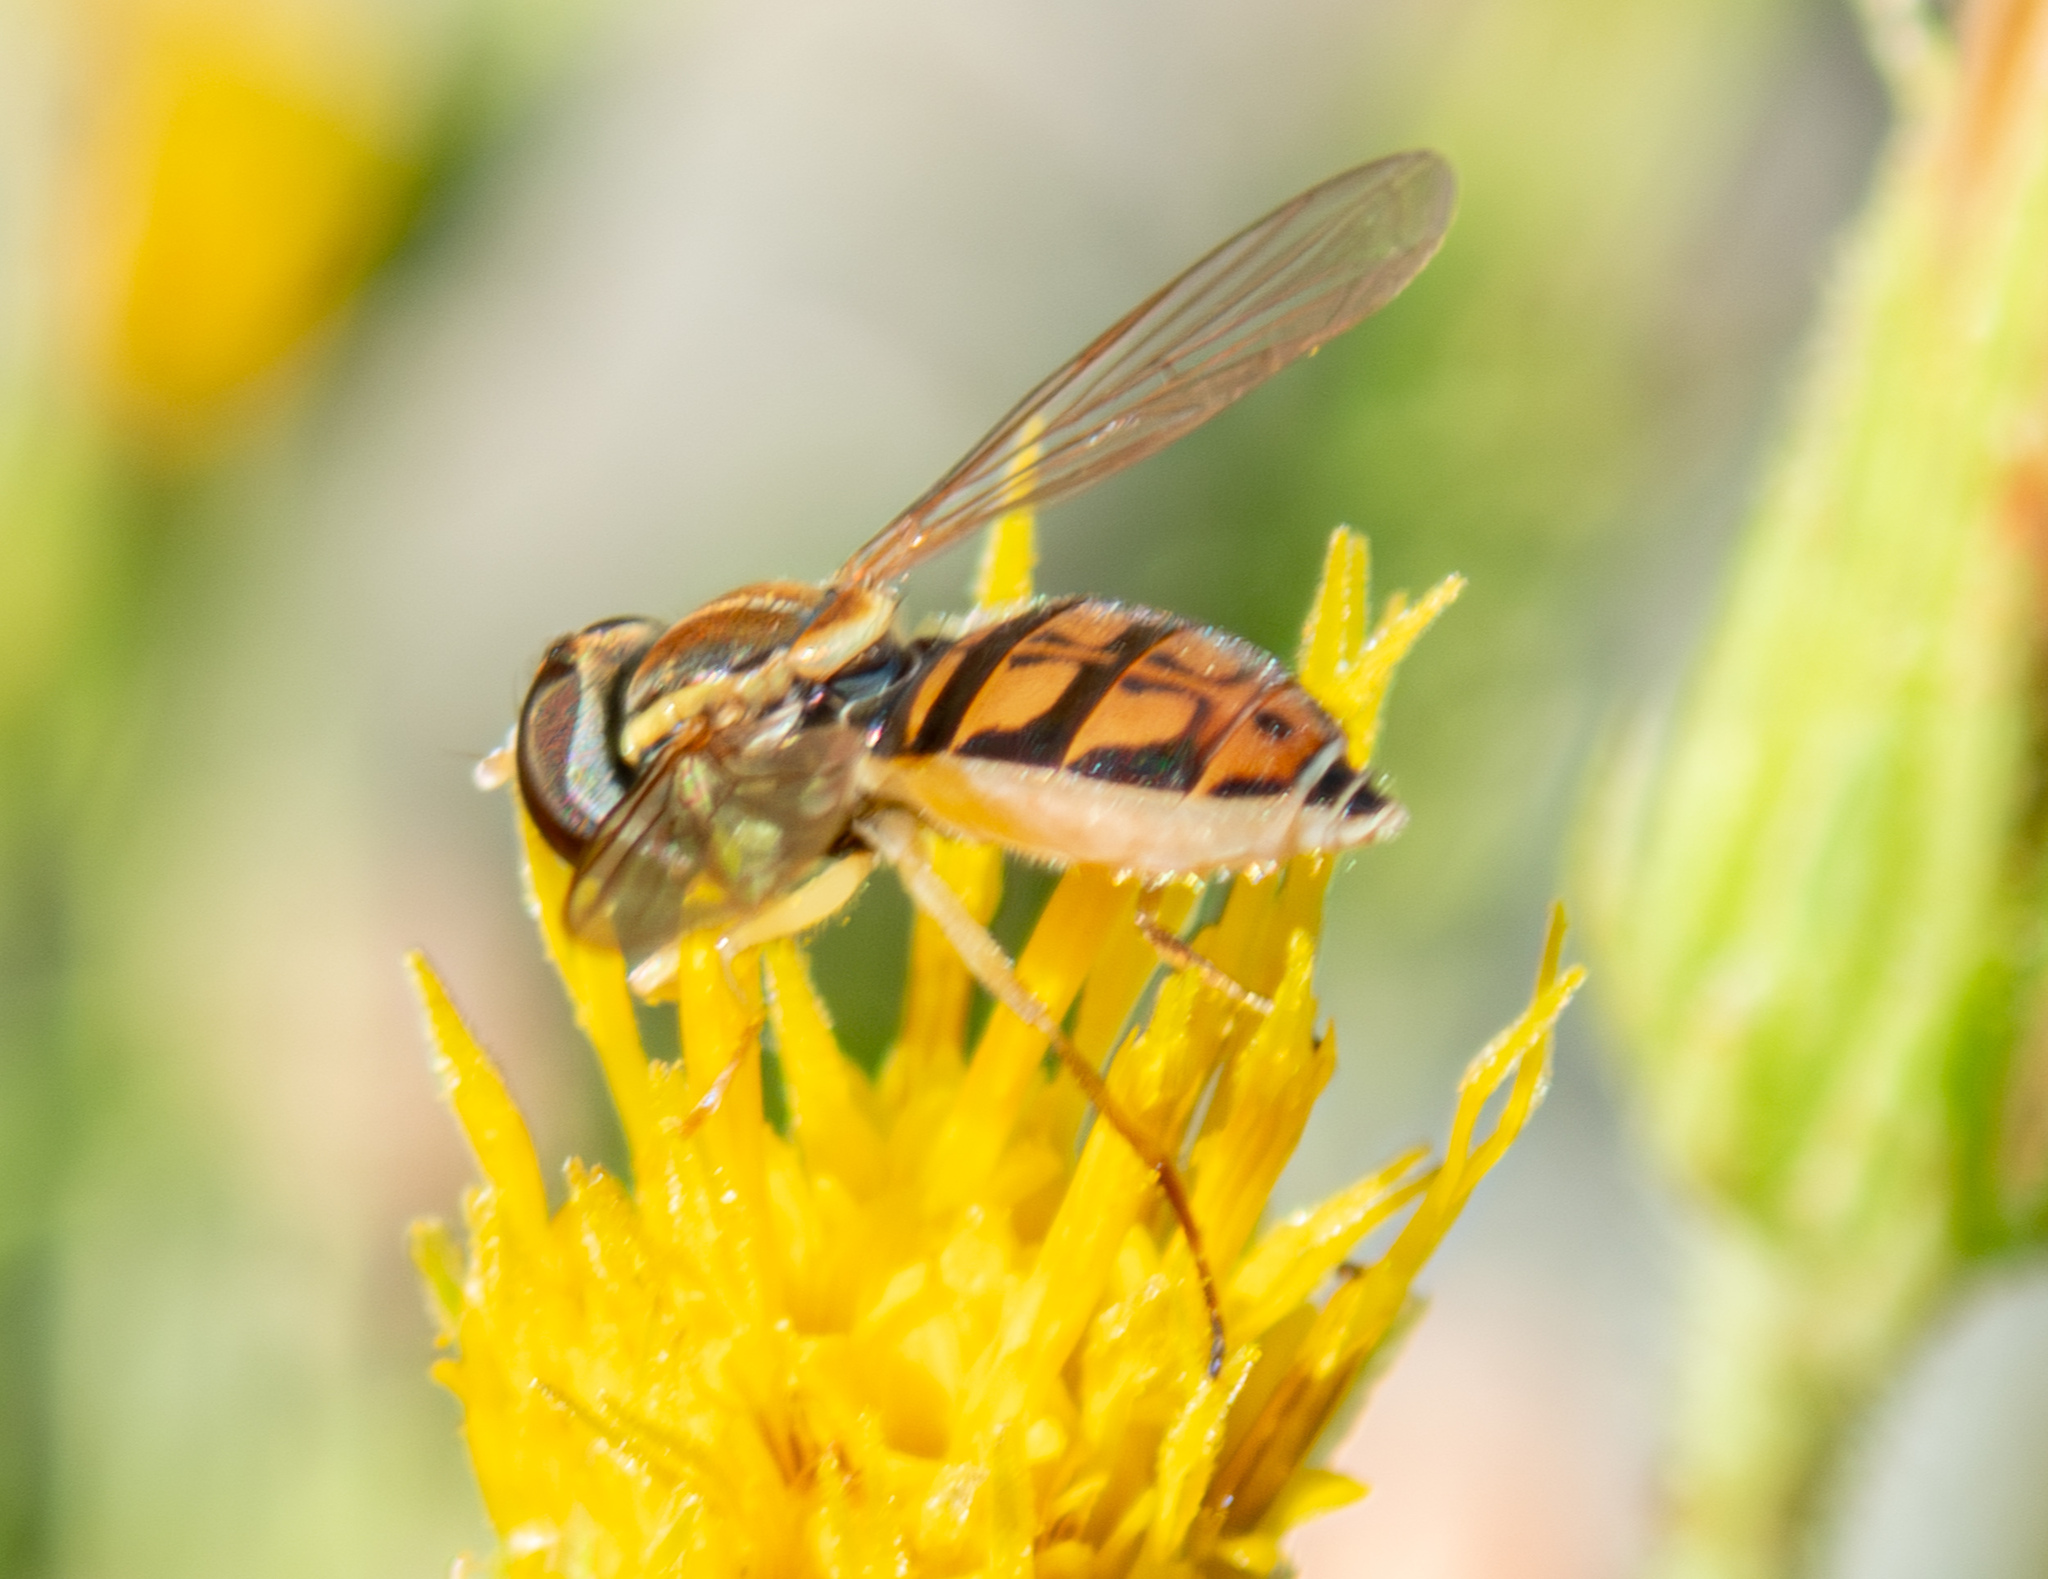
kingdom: Animalia
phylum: Arthropoda
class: Insecta
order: Diptera
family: Syrphidae
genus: Toxomerus
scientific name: Toxomerus marginatus
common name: Syrphid fly
